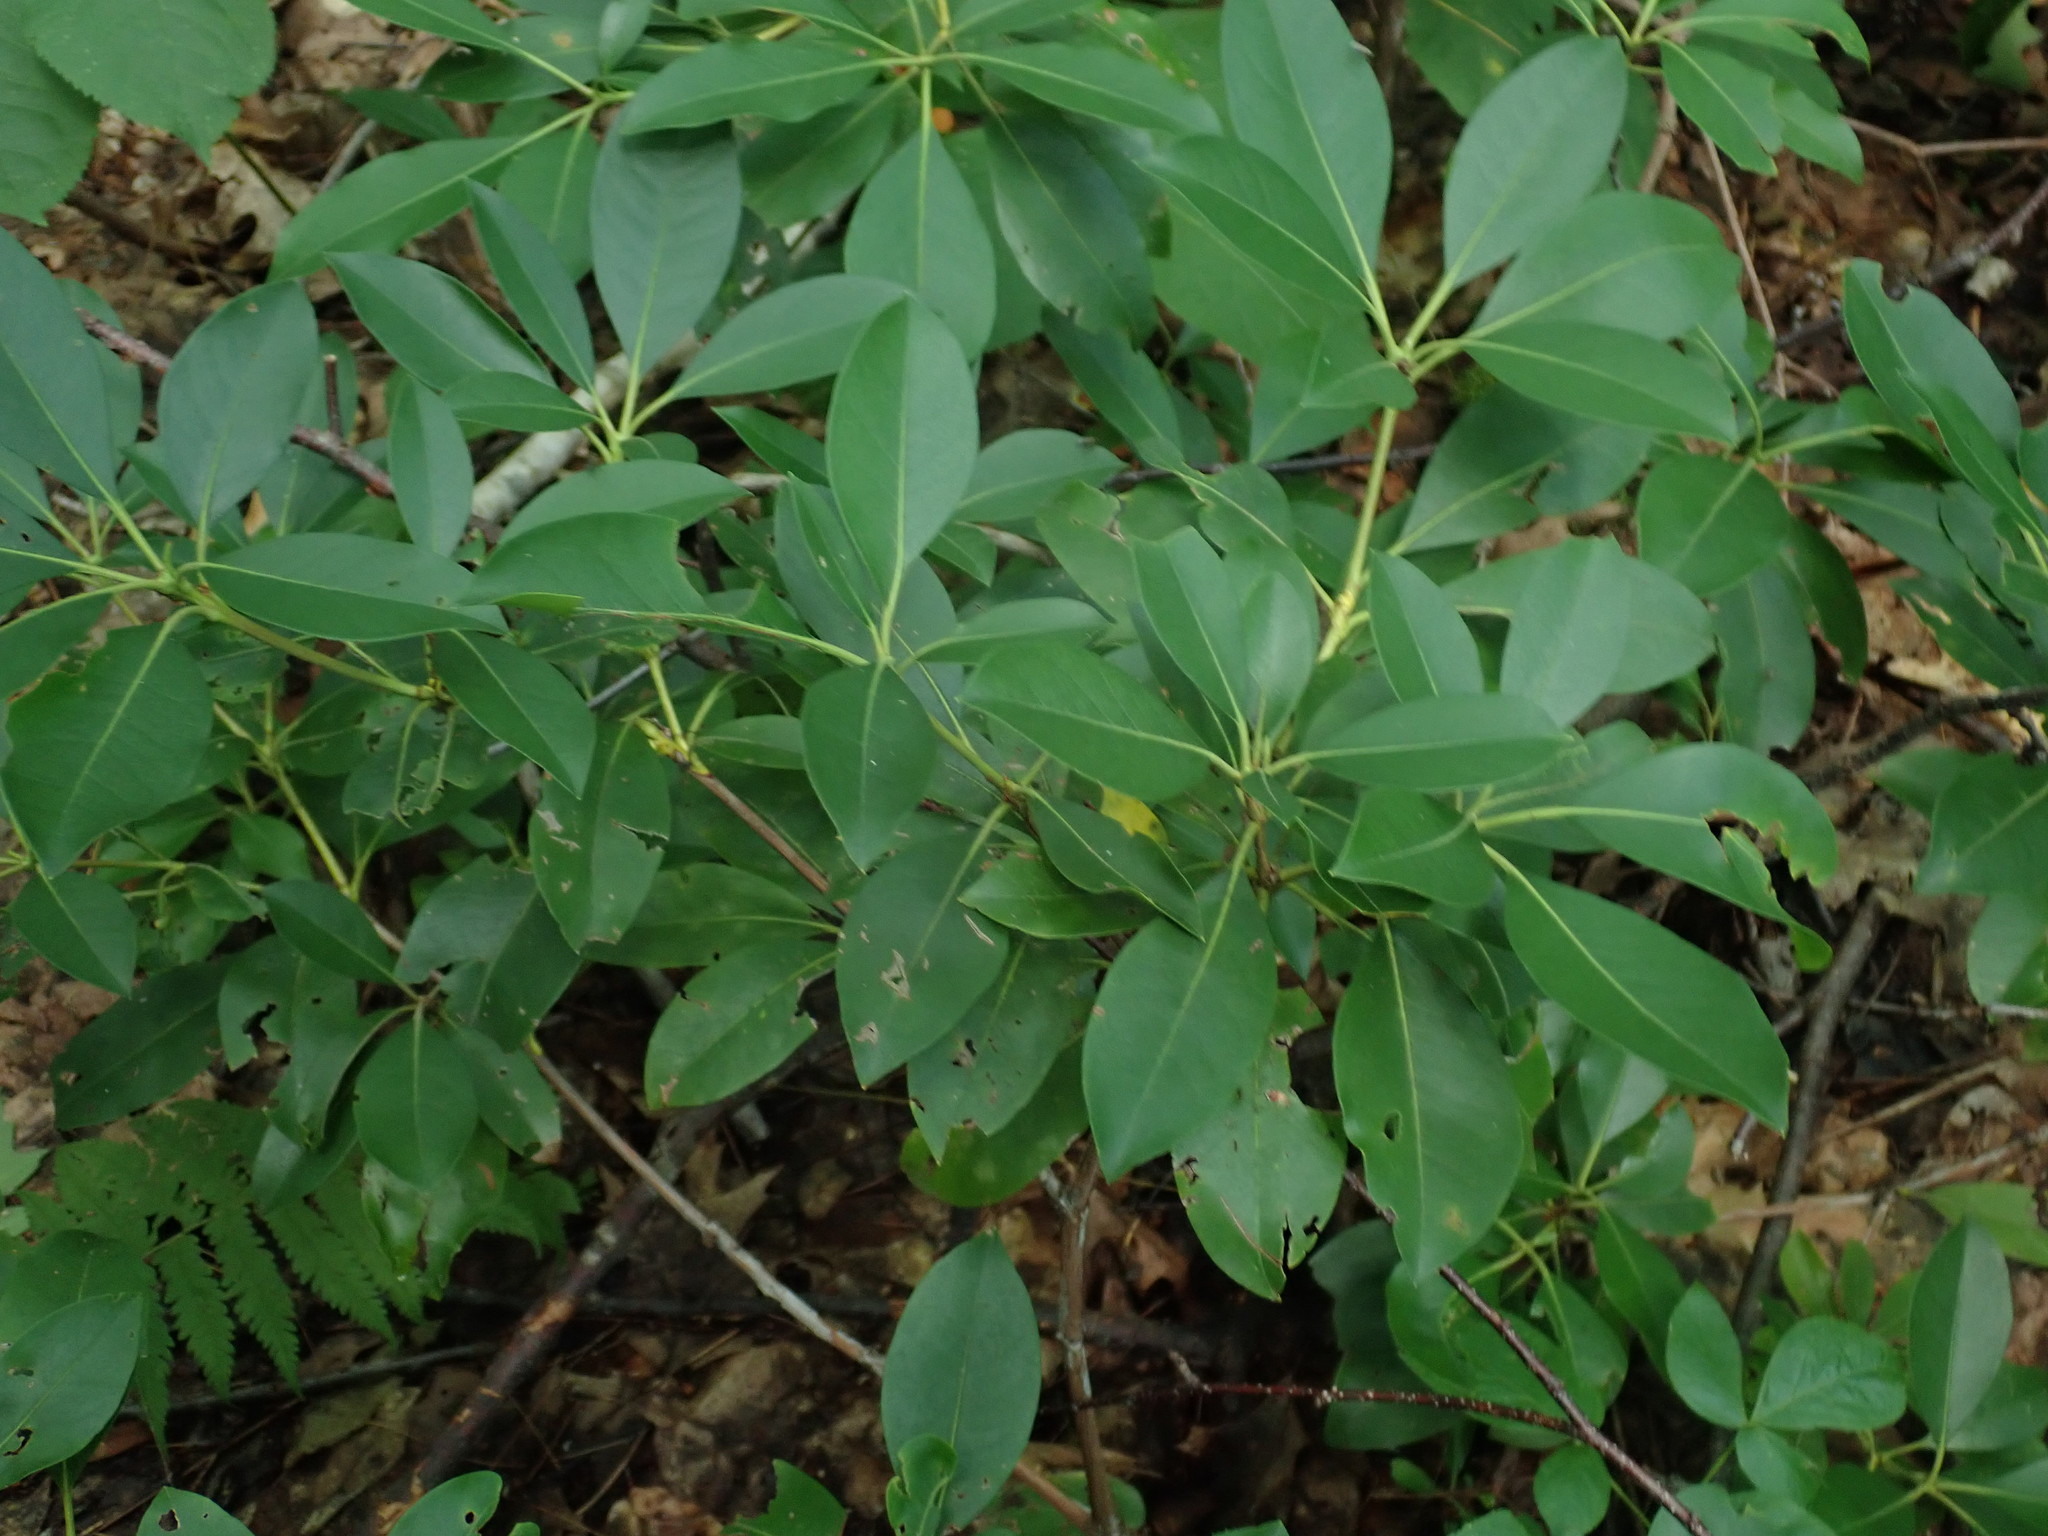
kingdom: Plantae
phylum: Tracheophyta
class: Magnoliopsida
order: Ericales
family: Ericaceae
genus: Kalmia
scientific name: Kalmia latifolia
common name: Mountain-laurel
